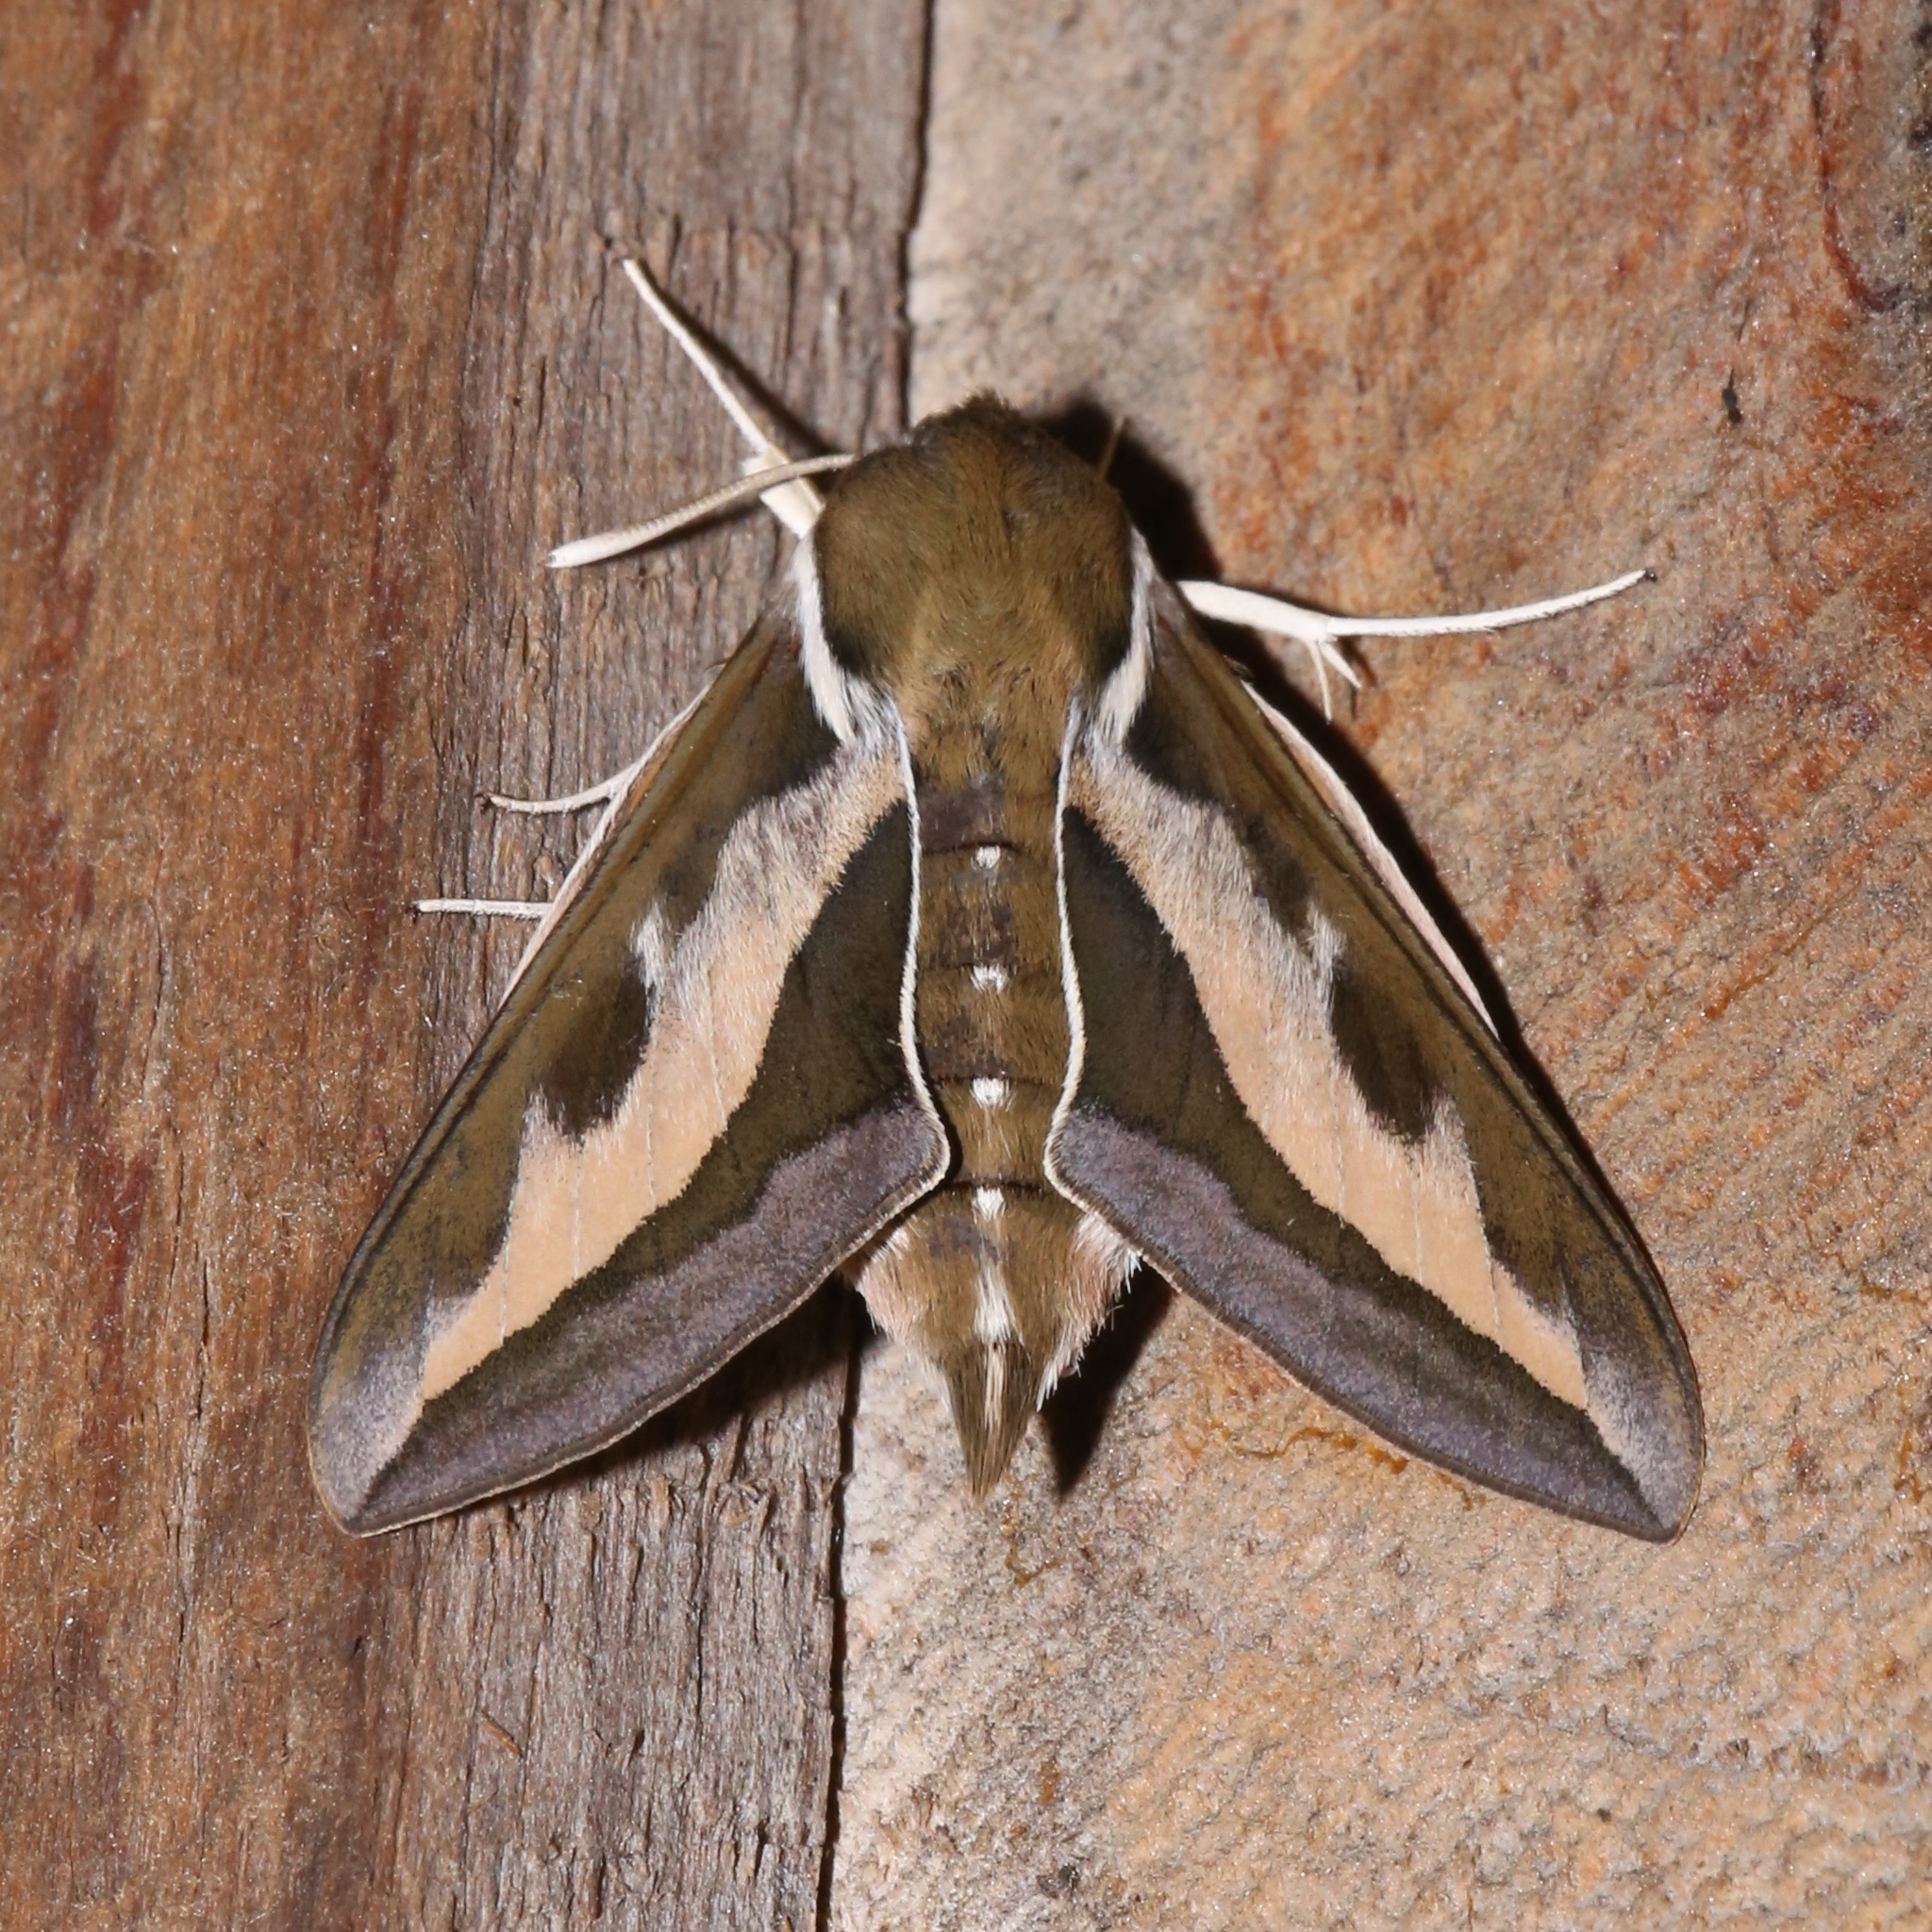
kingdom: Animalia
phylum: Arthropoda
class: Insecta
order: Lepidoptera
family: Sphingidae
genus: Hyles
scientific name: Hyles gallii
